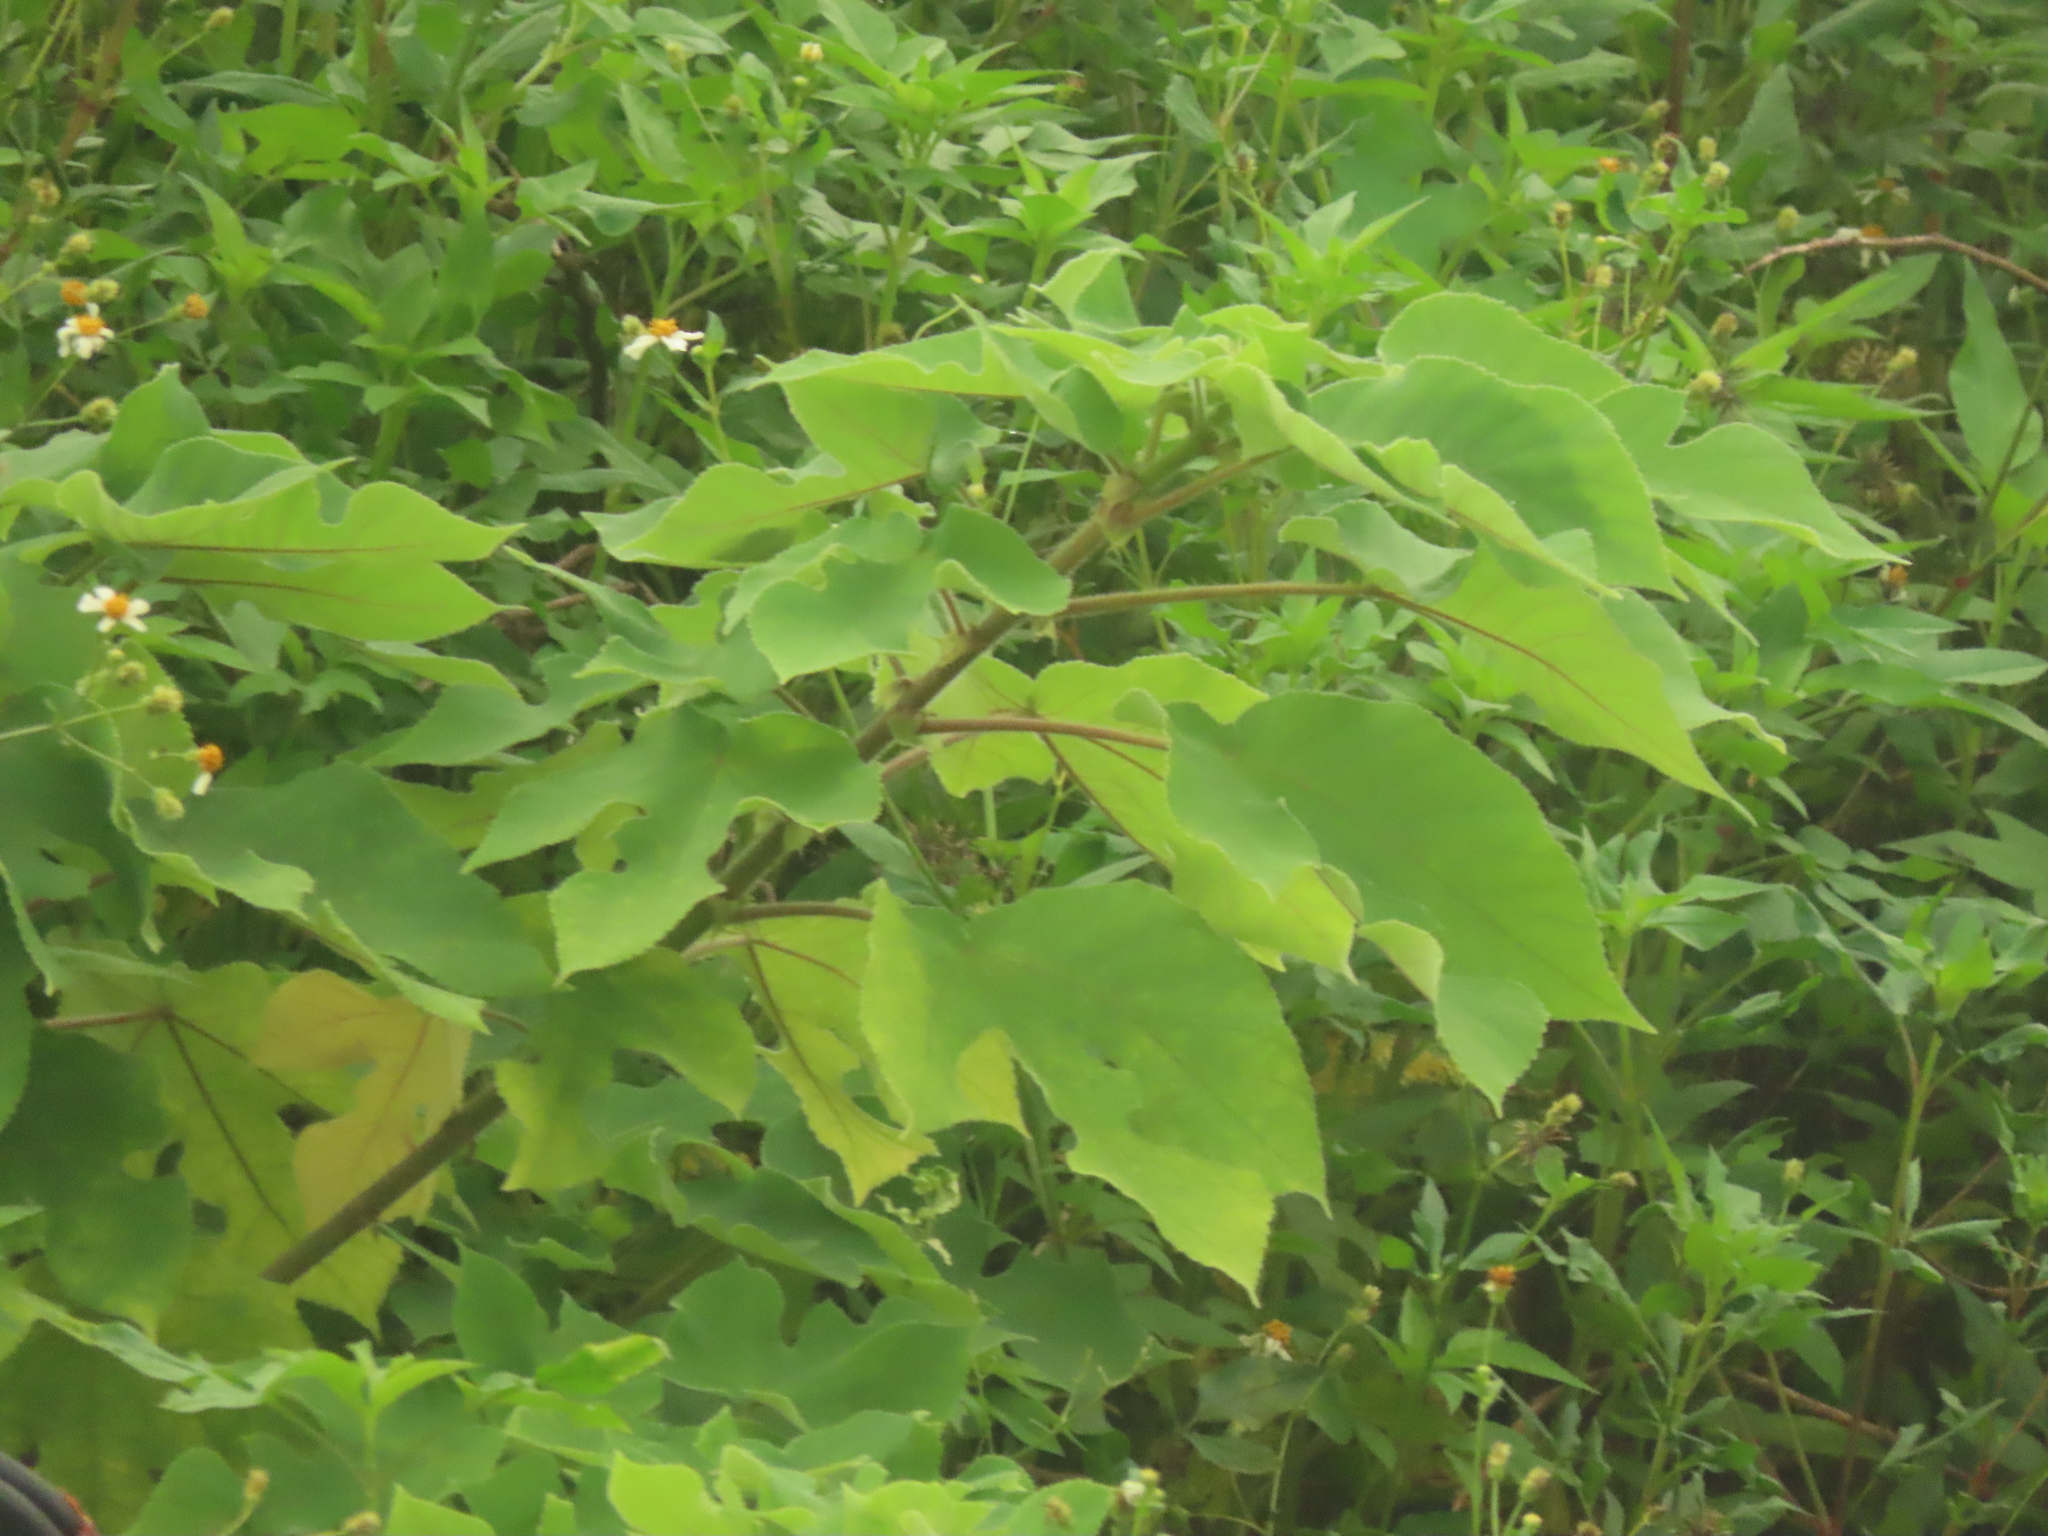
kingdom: Plantae
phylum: Tracheophyta
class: Magnoliopsida
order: Rosales
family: Moraceae
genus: Broussonetia
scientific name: Broussonetia papyrifera
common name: Paper mulberry
